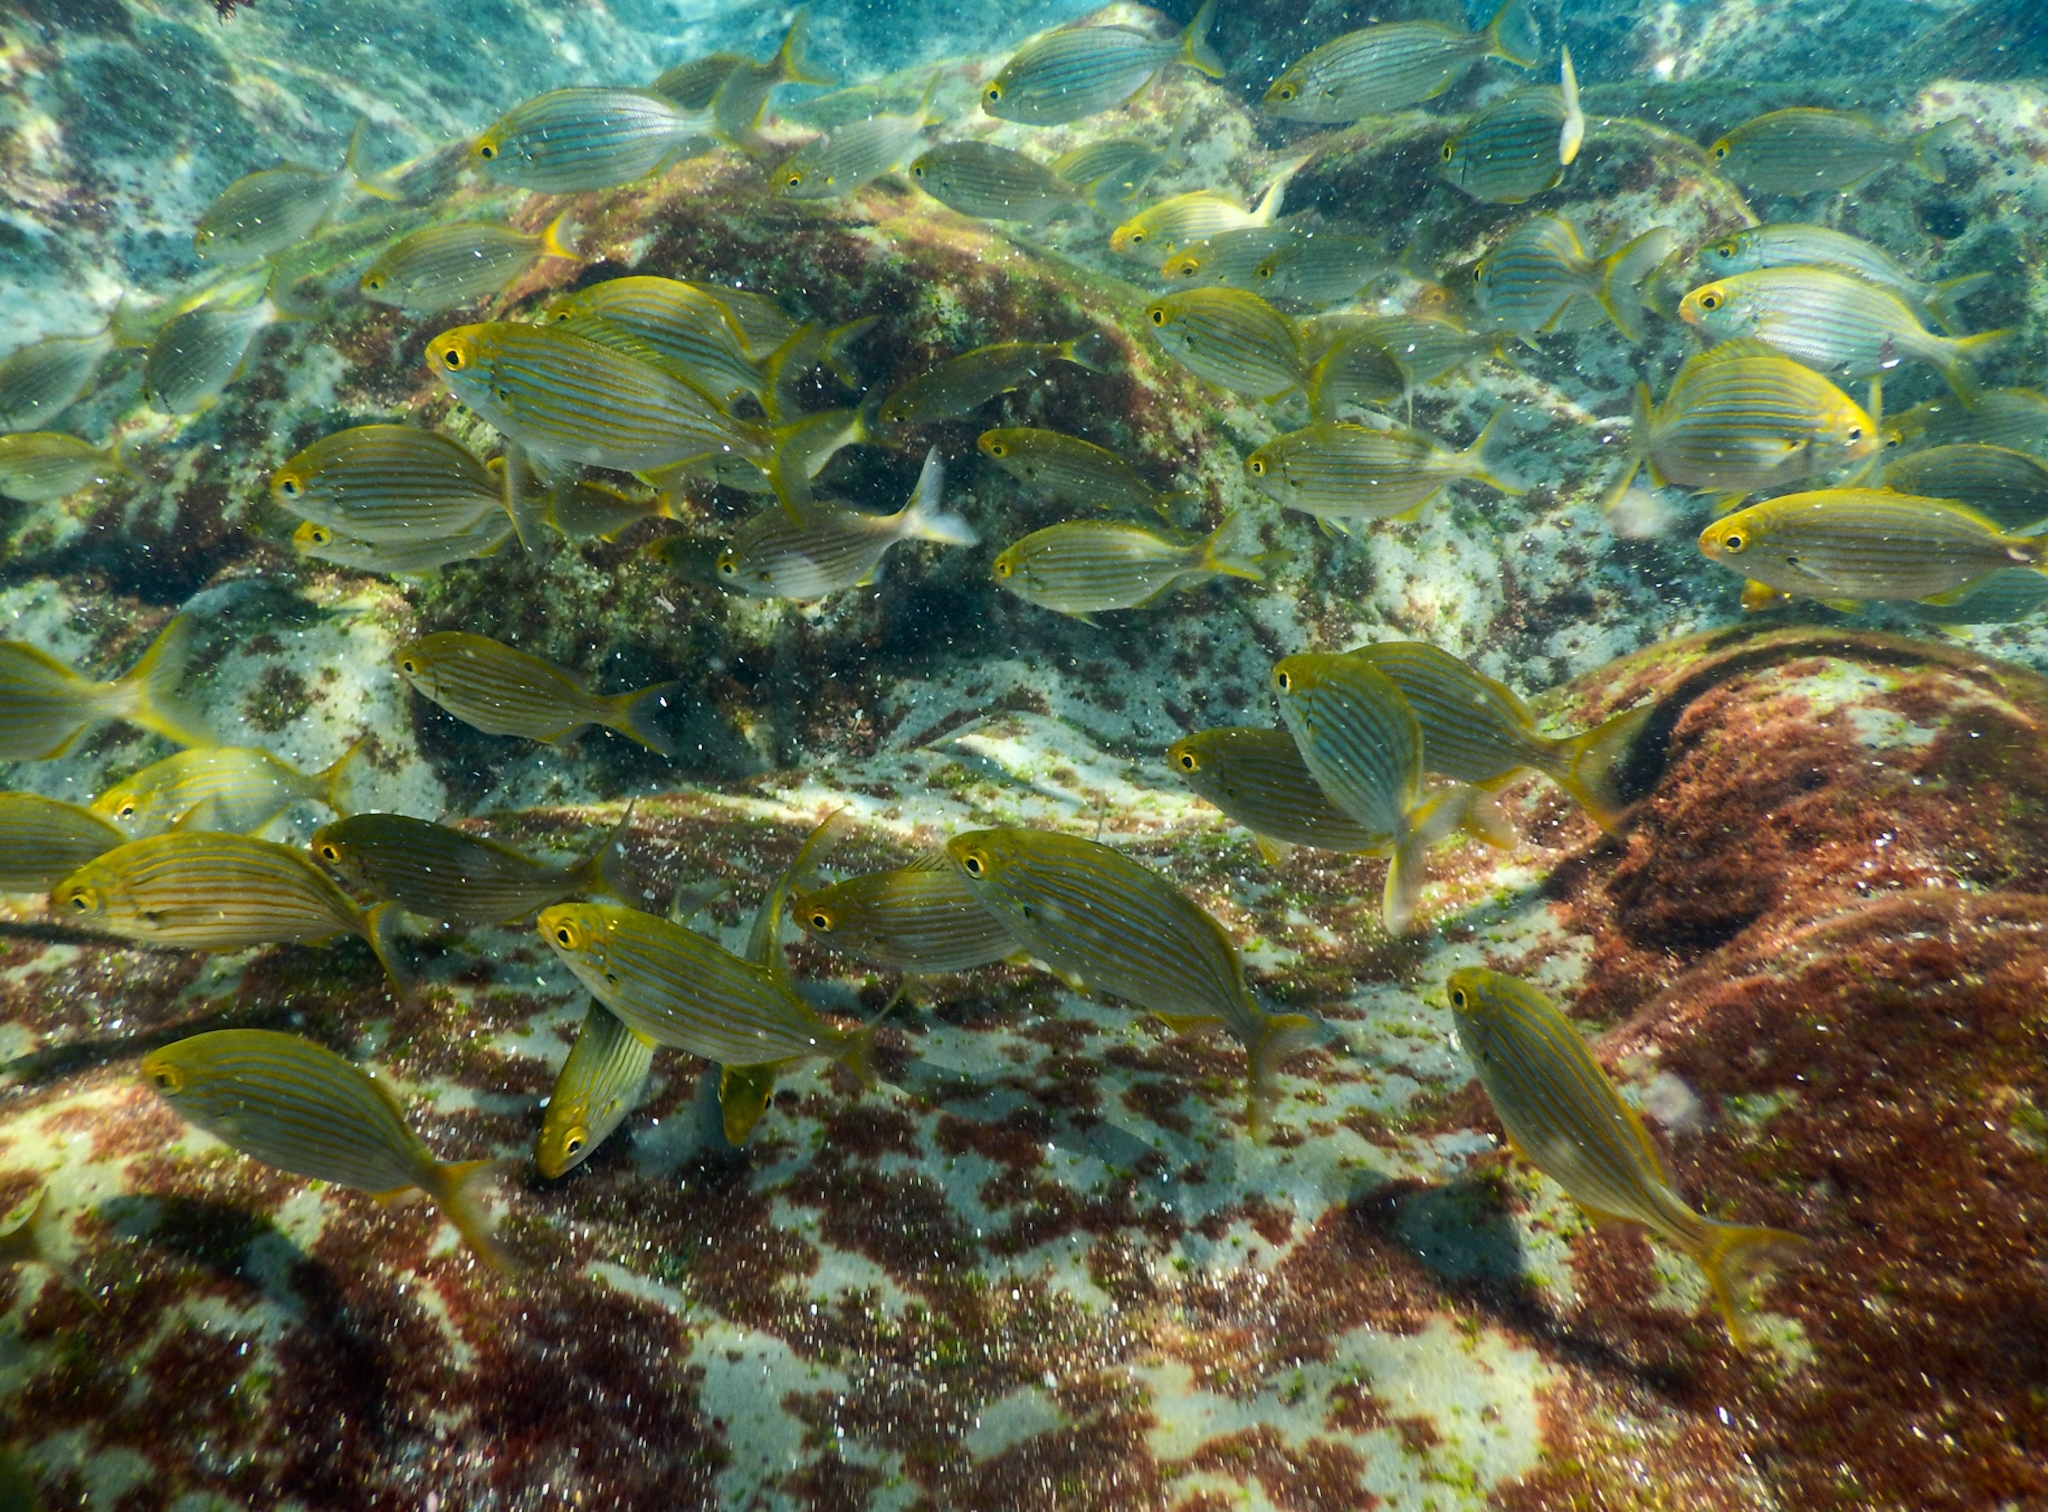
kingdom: Animalia
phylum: Chordata
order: Perciformes
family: Sparidae
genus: Sarpa
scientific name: Sarpa salpa
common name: Salema
